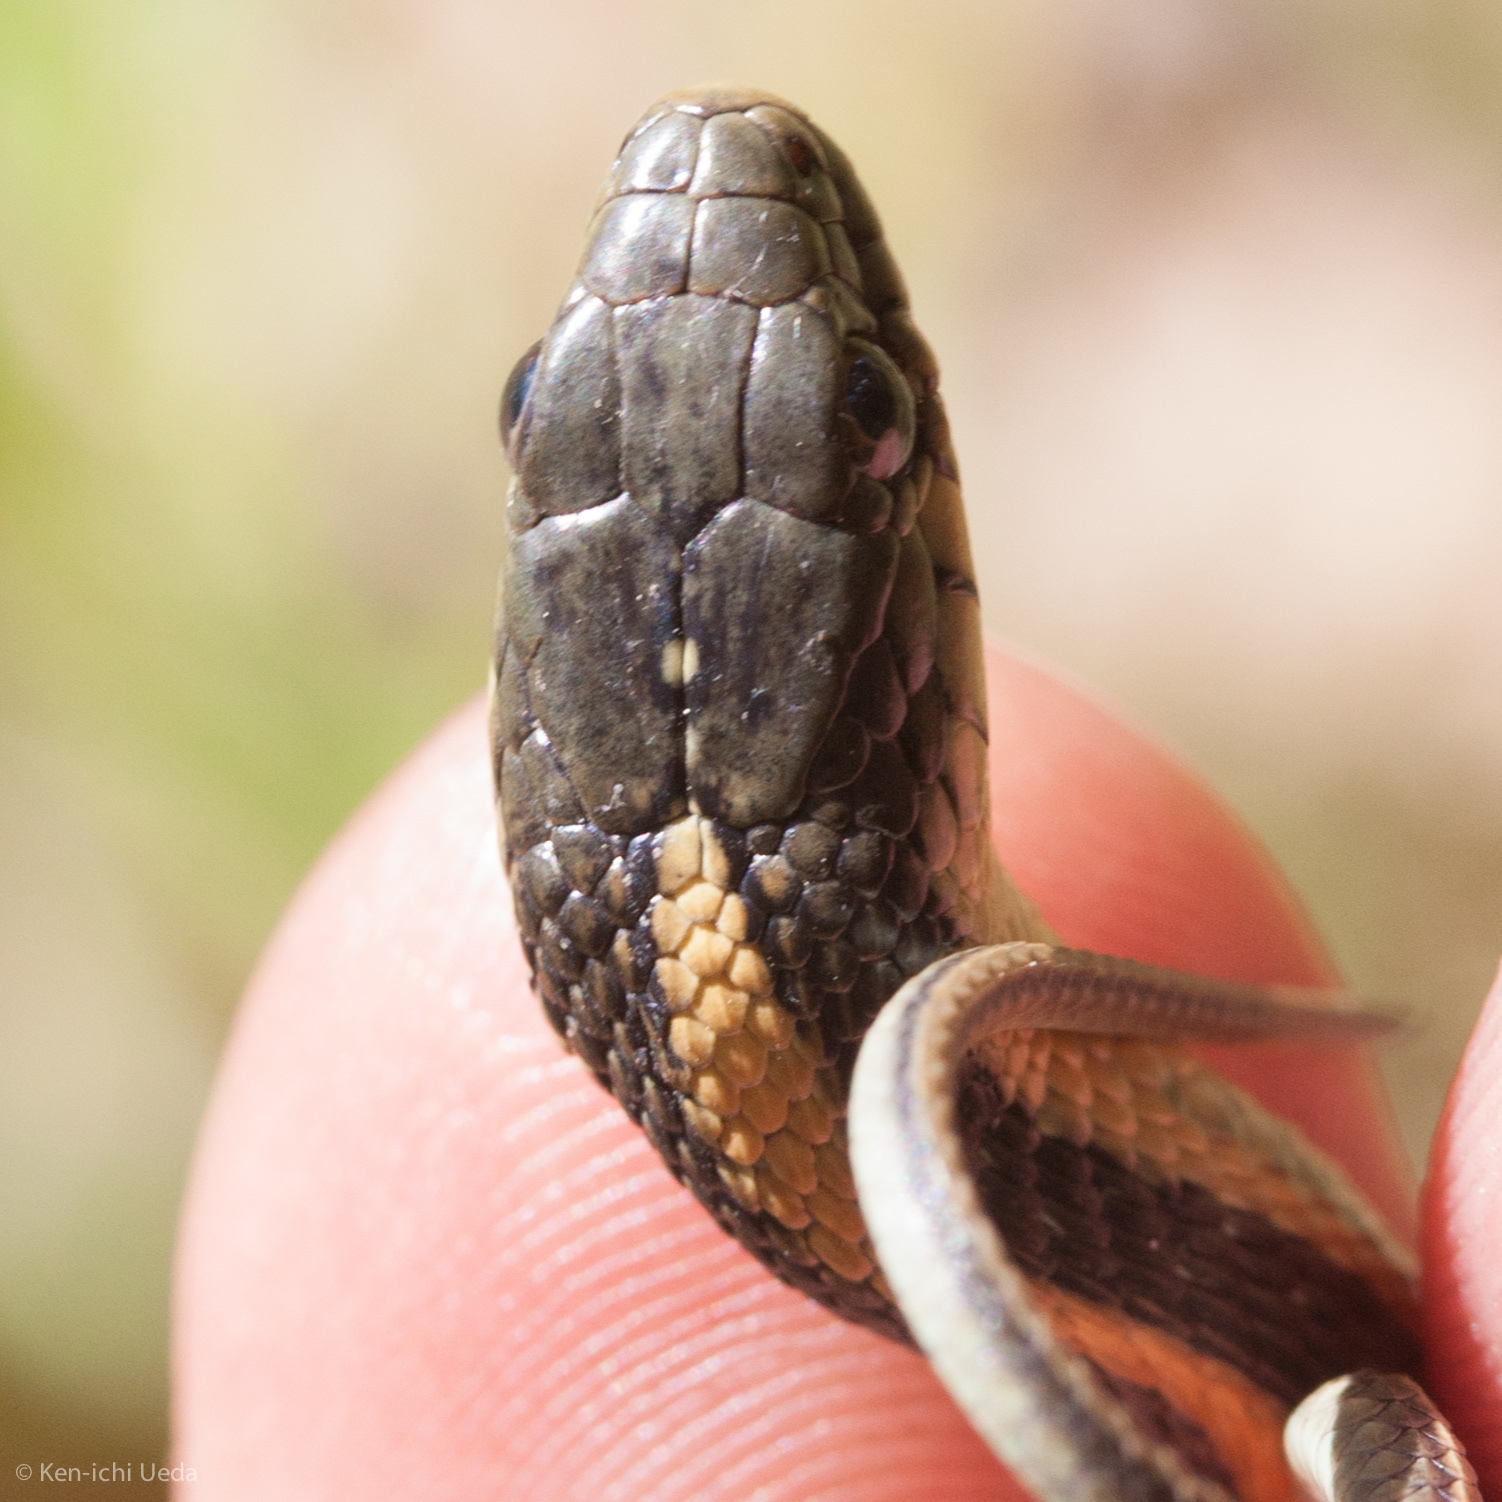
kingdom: Animalia
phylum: Chordata
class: Squamata
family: Colubridae
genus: Thamnophis
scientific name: Thamnophis atratus
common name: Pacific coast aquatic garter snake
